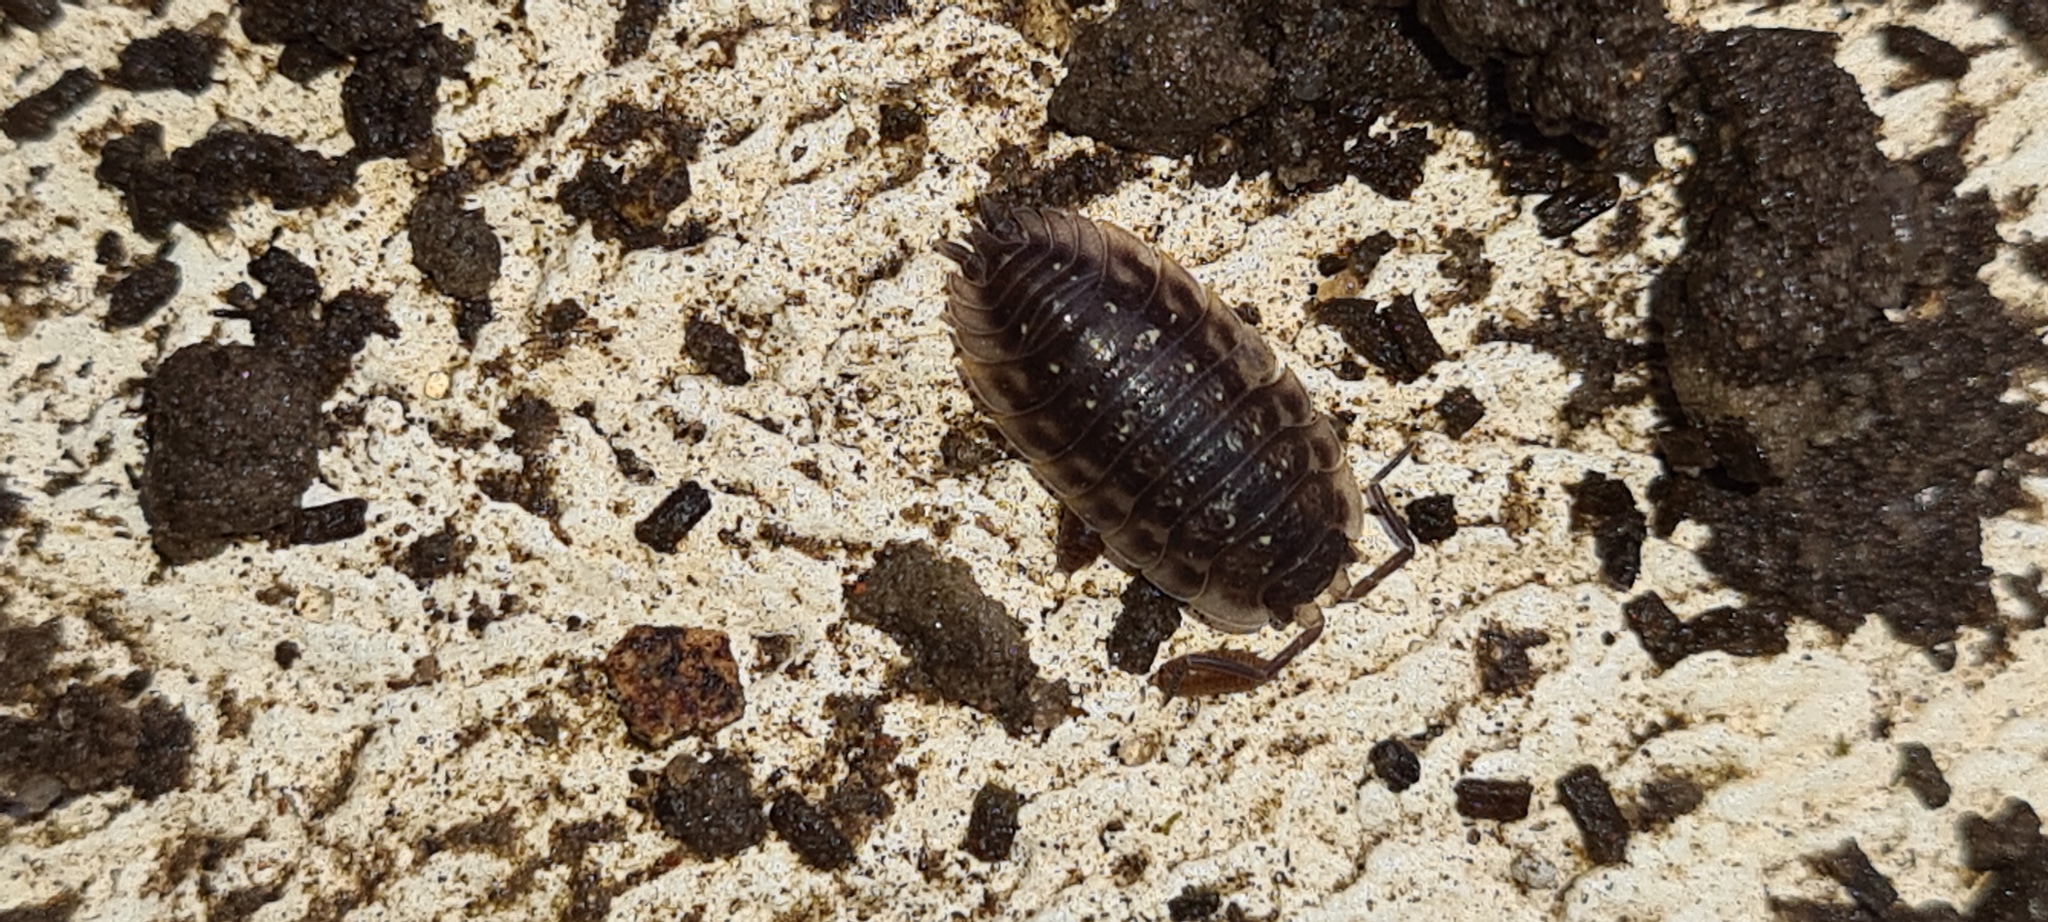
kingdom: Animalia
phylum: Arthropoda
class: Malacostraca
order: Isopoda
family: Oniscidae
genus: Oniscus
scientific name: Oniscus asellus
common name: Common shiny woodlouse
